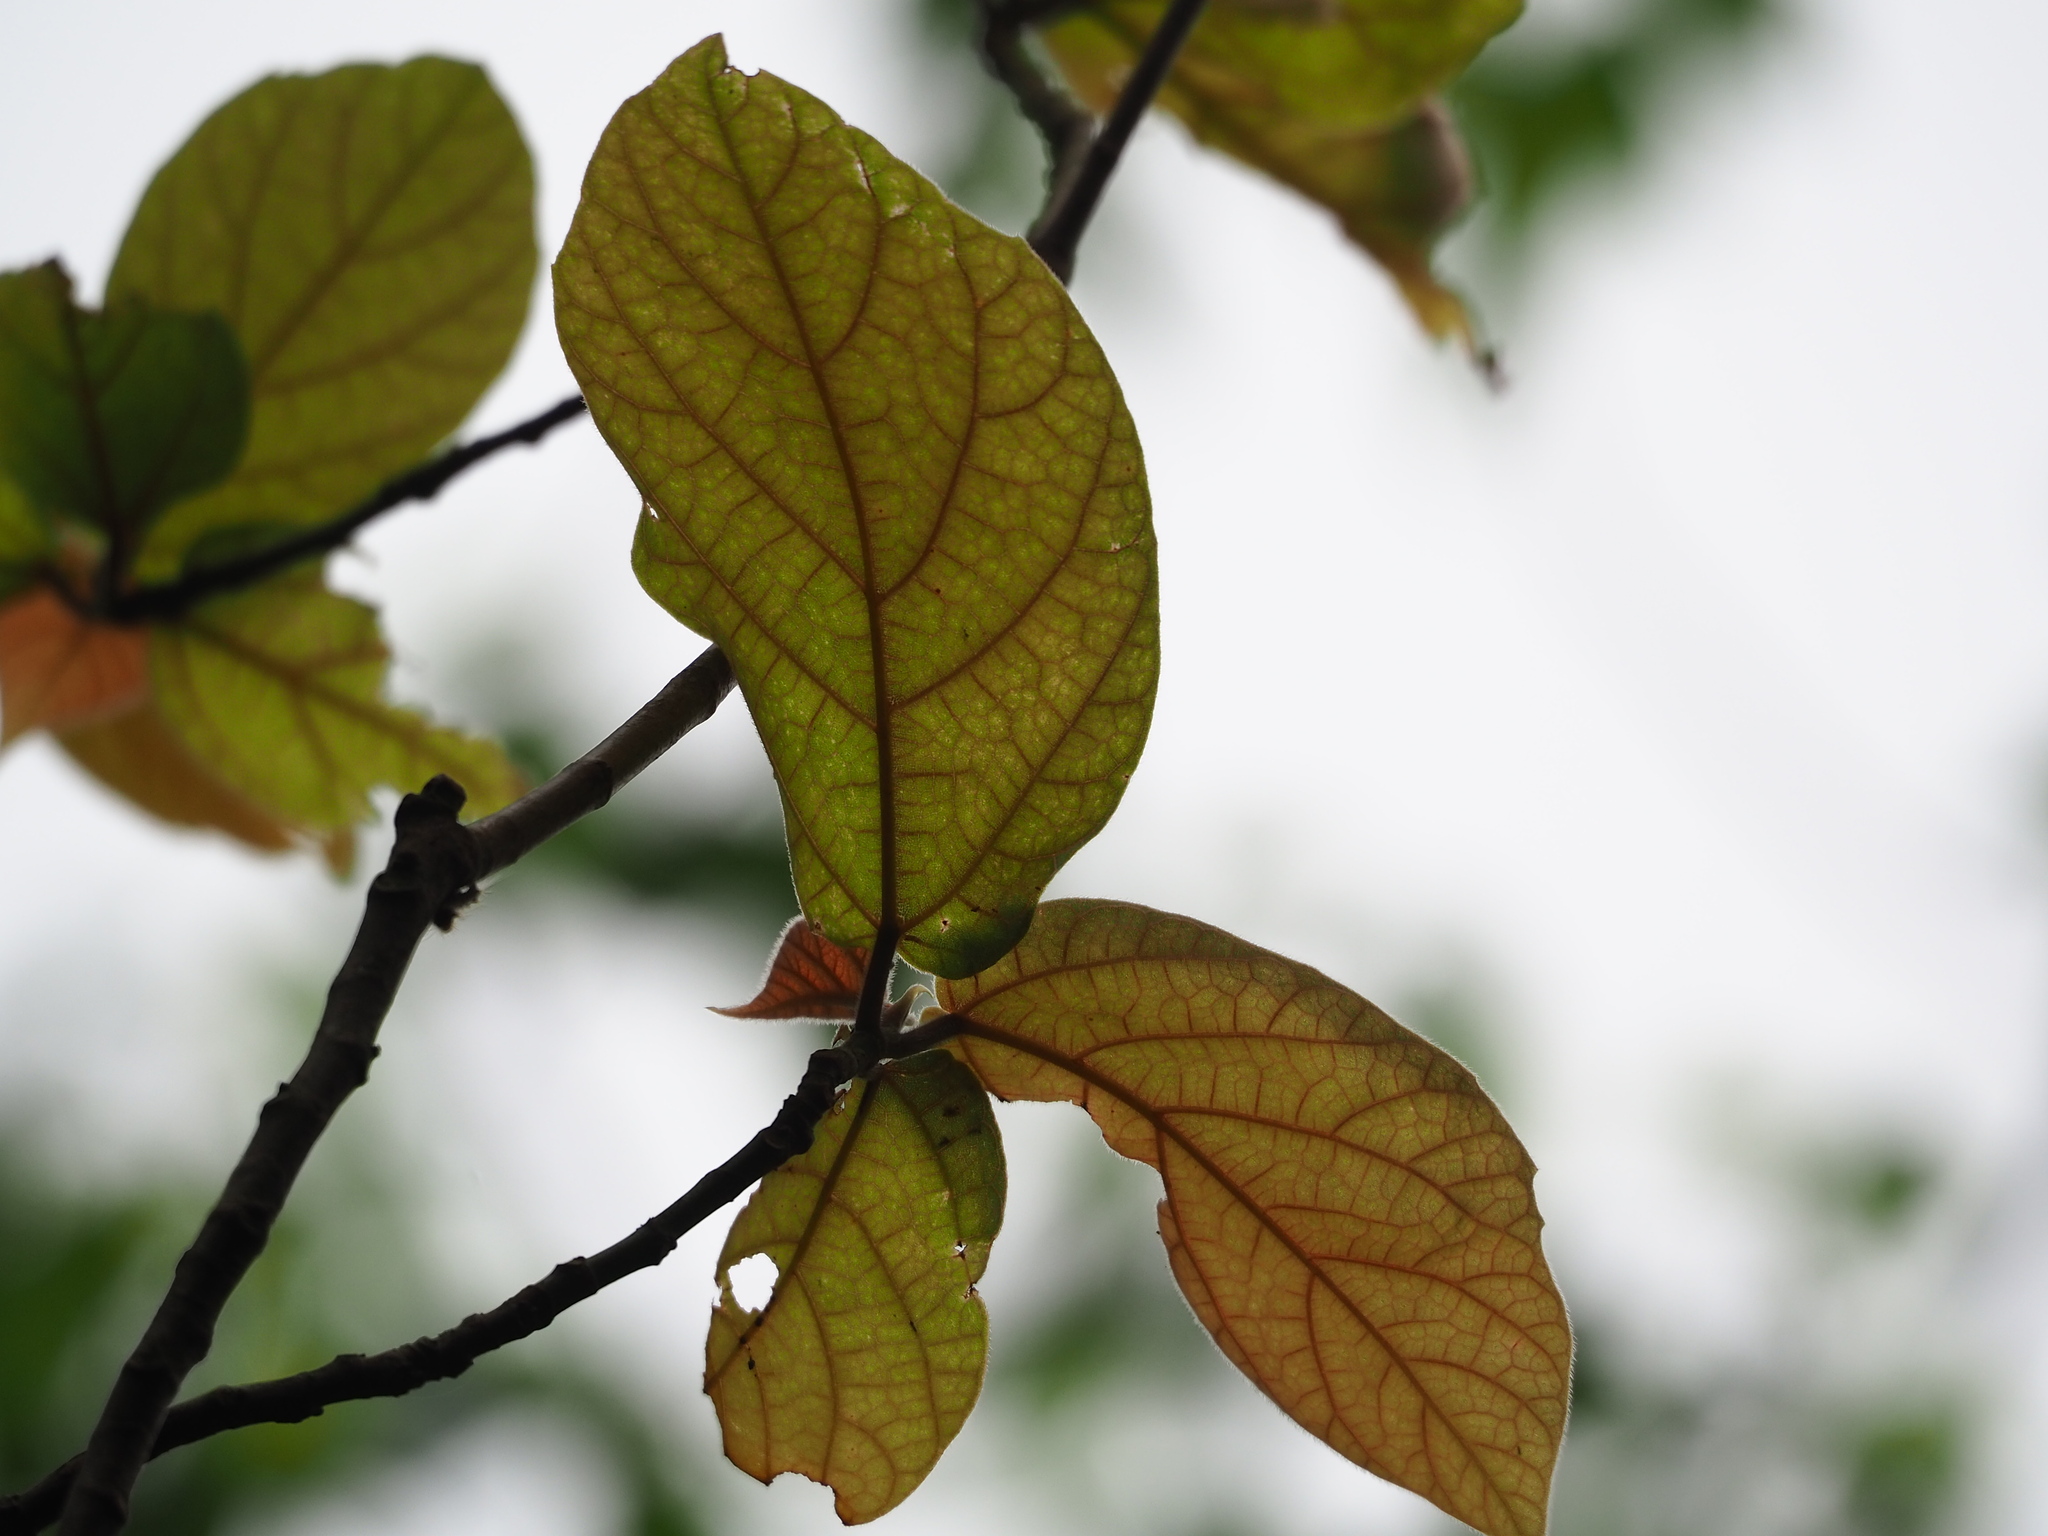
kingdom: Plantae
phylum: Tracheophyta
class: Magnoliopsida
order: Rosales
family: Moraceae
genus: Ficus
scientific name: Ficus erecta
